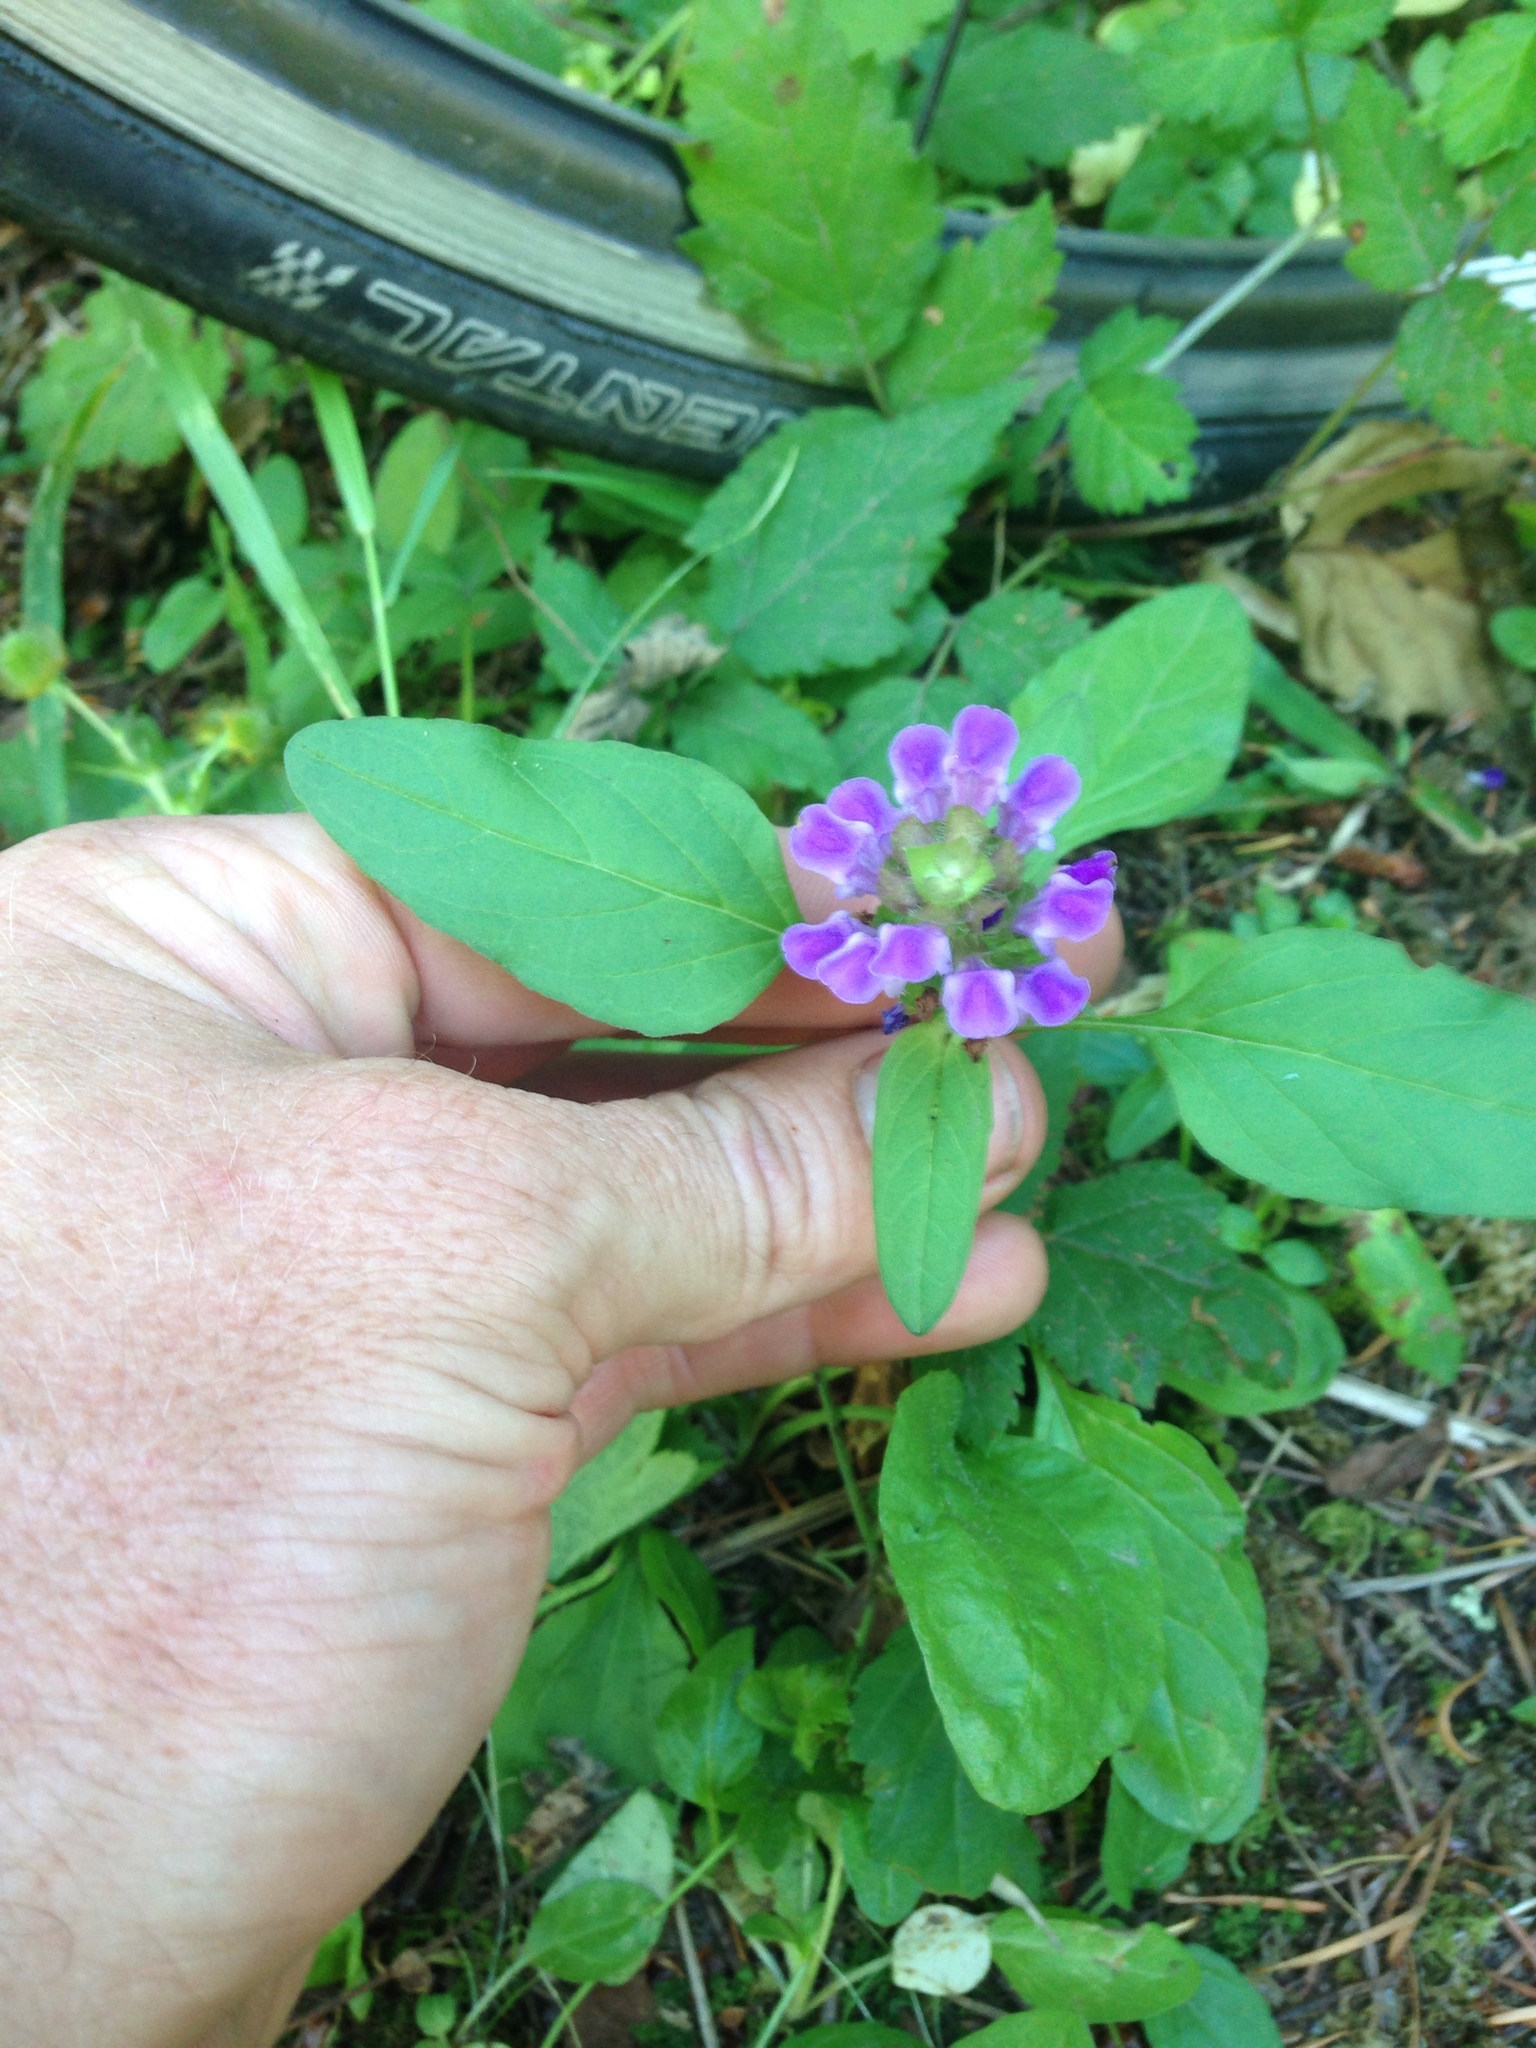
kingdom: Plantae
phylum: Tracheophyta
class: Magnoliopsida
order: Lamiales
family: Lamiaceae
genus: Prunella
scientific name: Prunella vulgaris
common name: Heal-all
